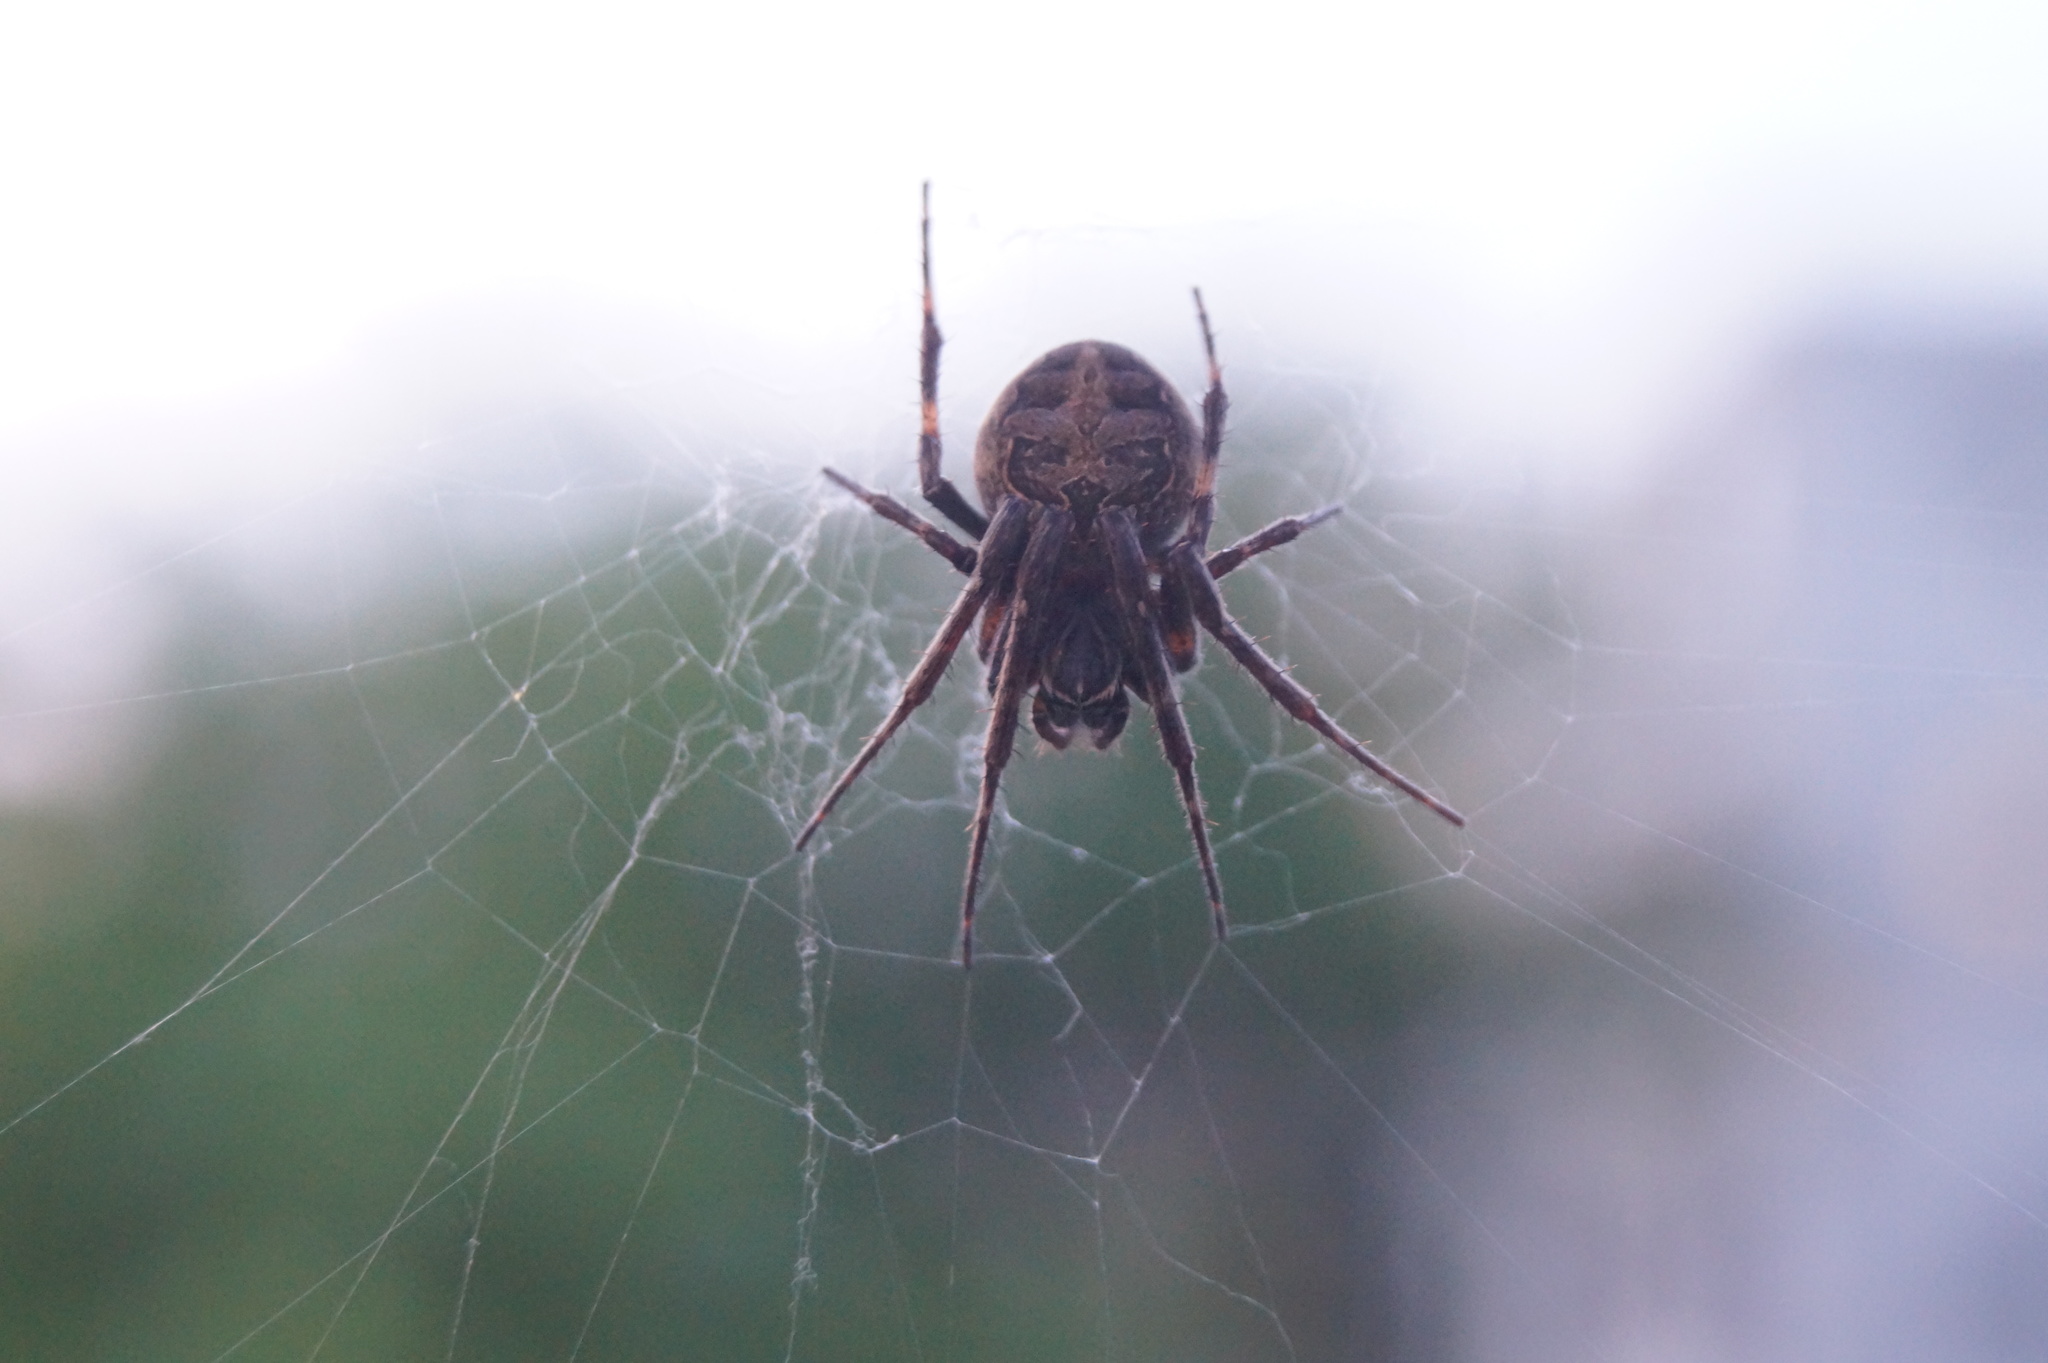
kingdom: Animalia
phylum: Arthropoda
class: Arachnida
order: Araneae
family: Araneidae
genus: Larinioides
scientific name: Larinioides sclopetarius
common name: Bridge orbweaver
